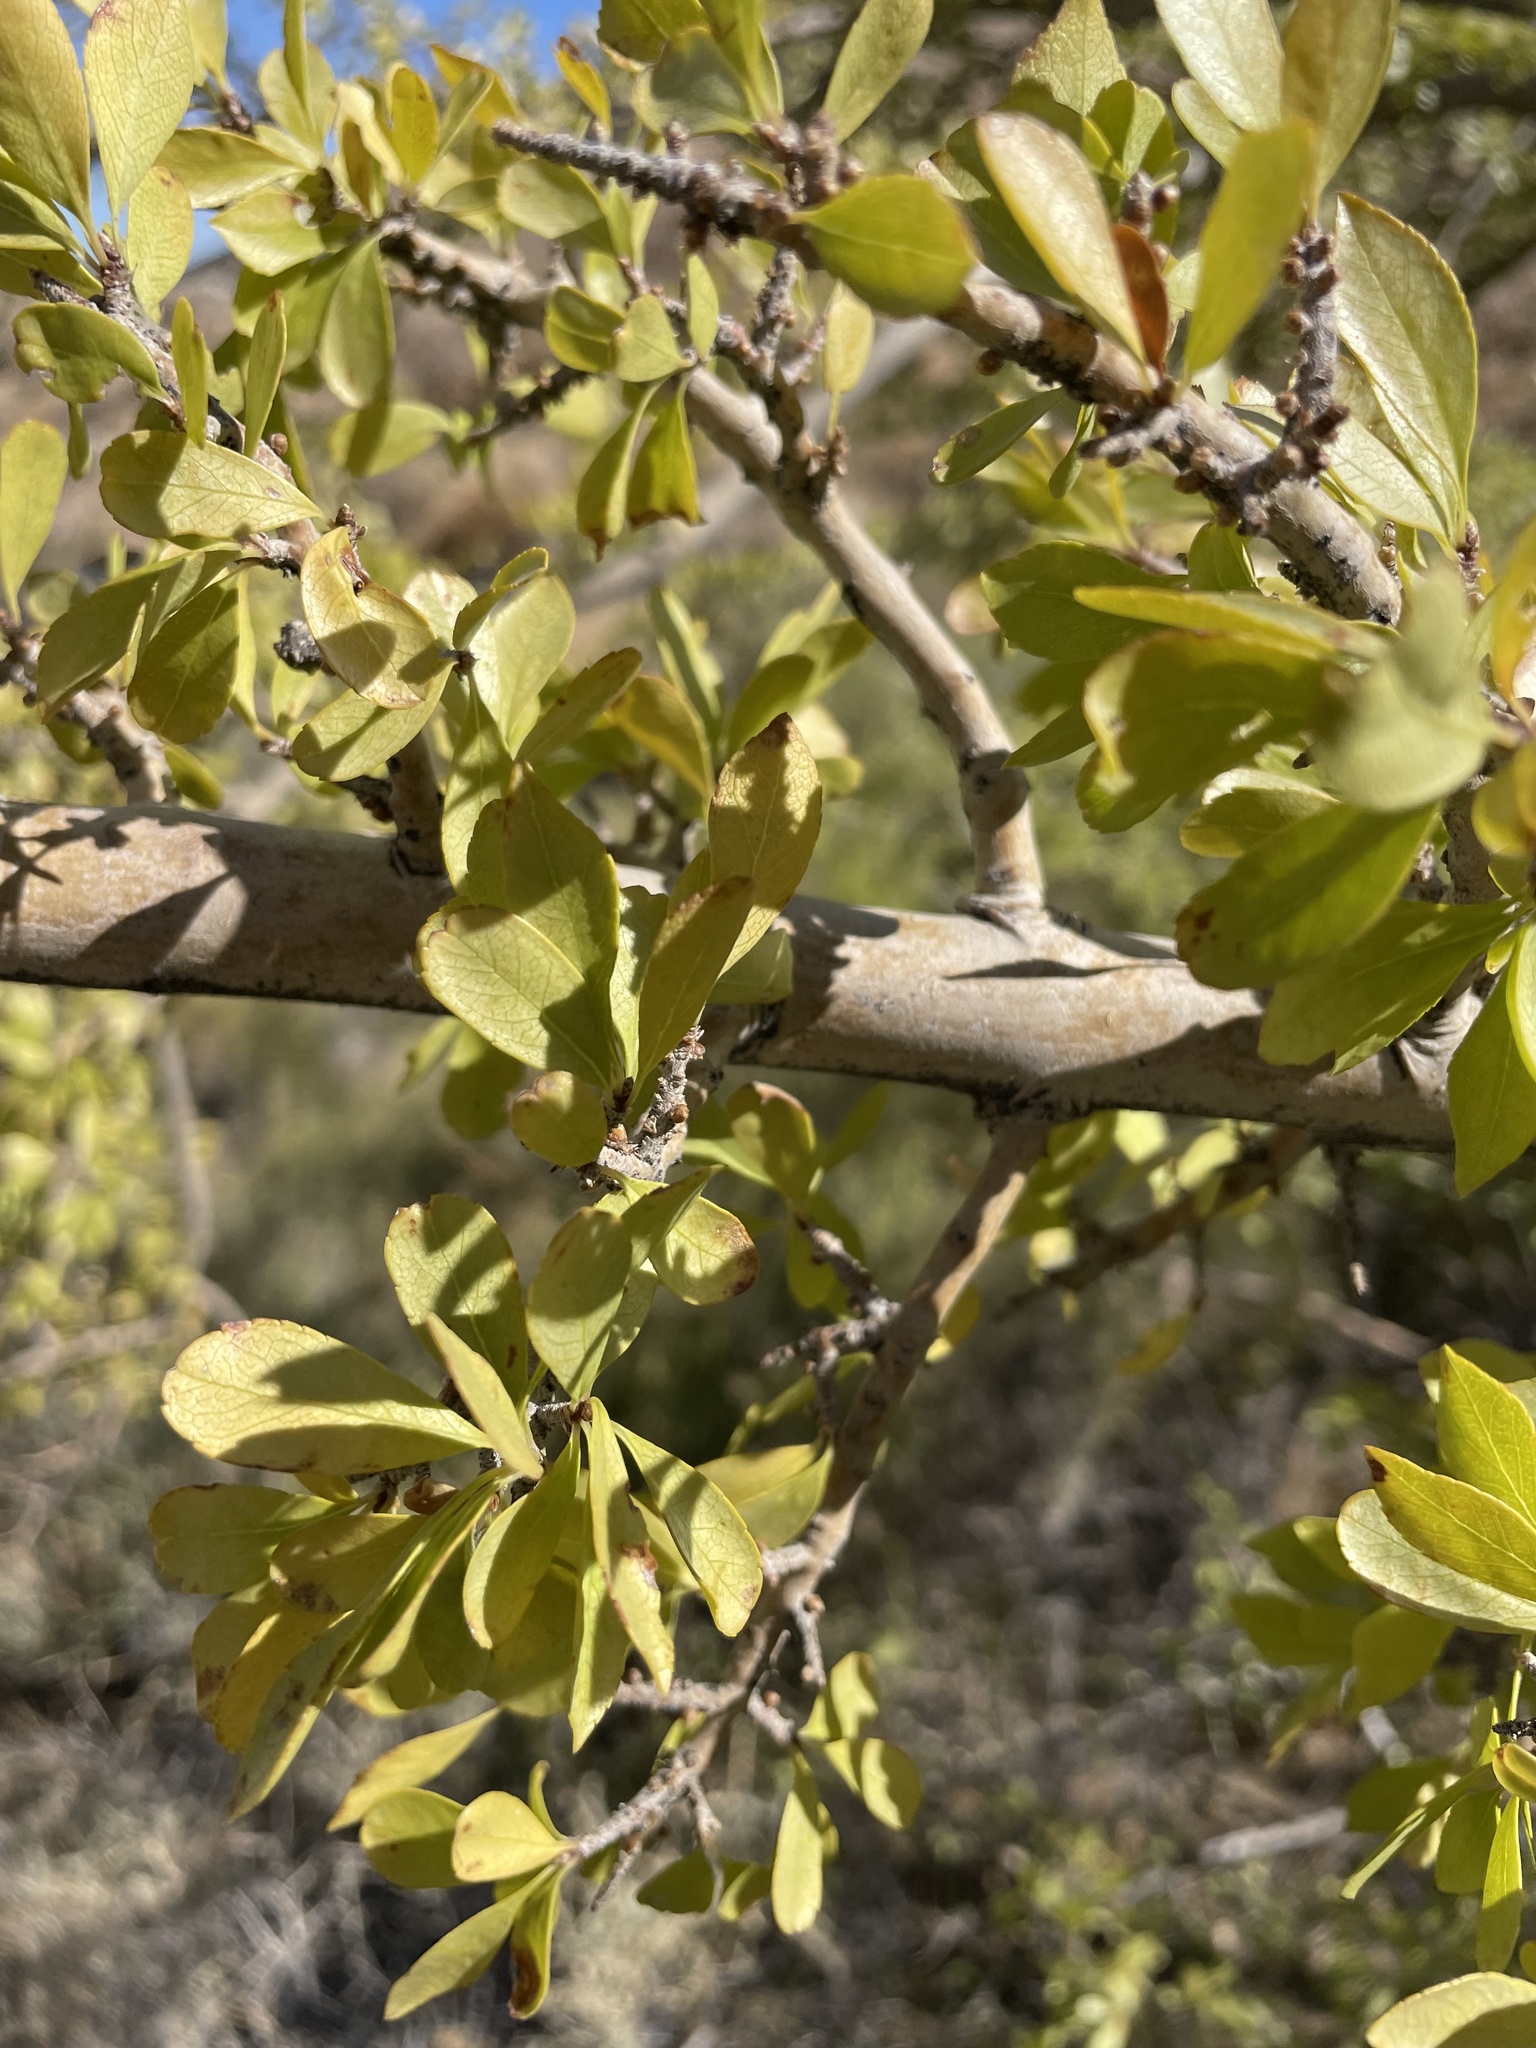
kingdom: Plantae
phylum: Tracheophyta
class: Magnoliopsida
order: Lamiales
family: Oleaceae
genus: Forestiera
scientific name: Forestiera pubescens
